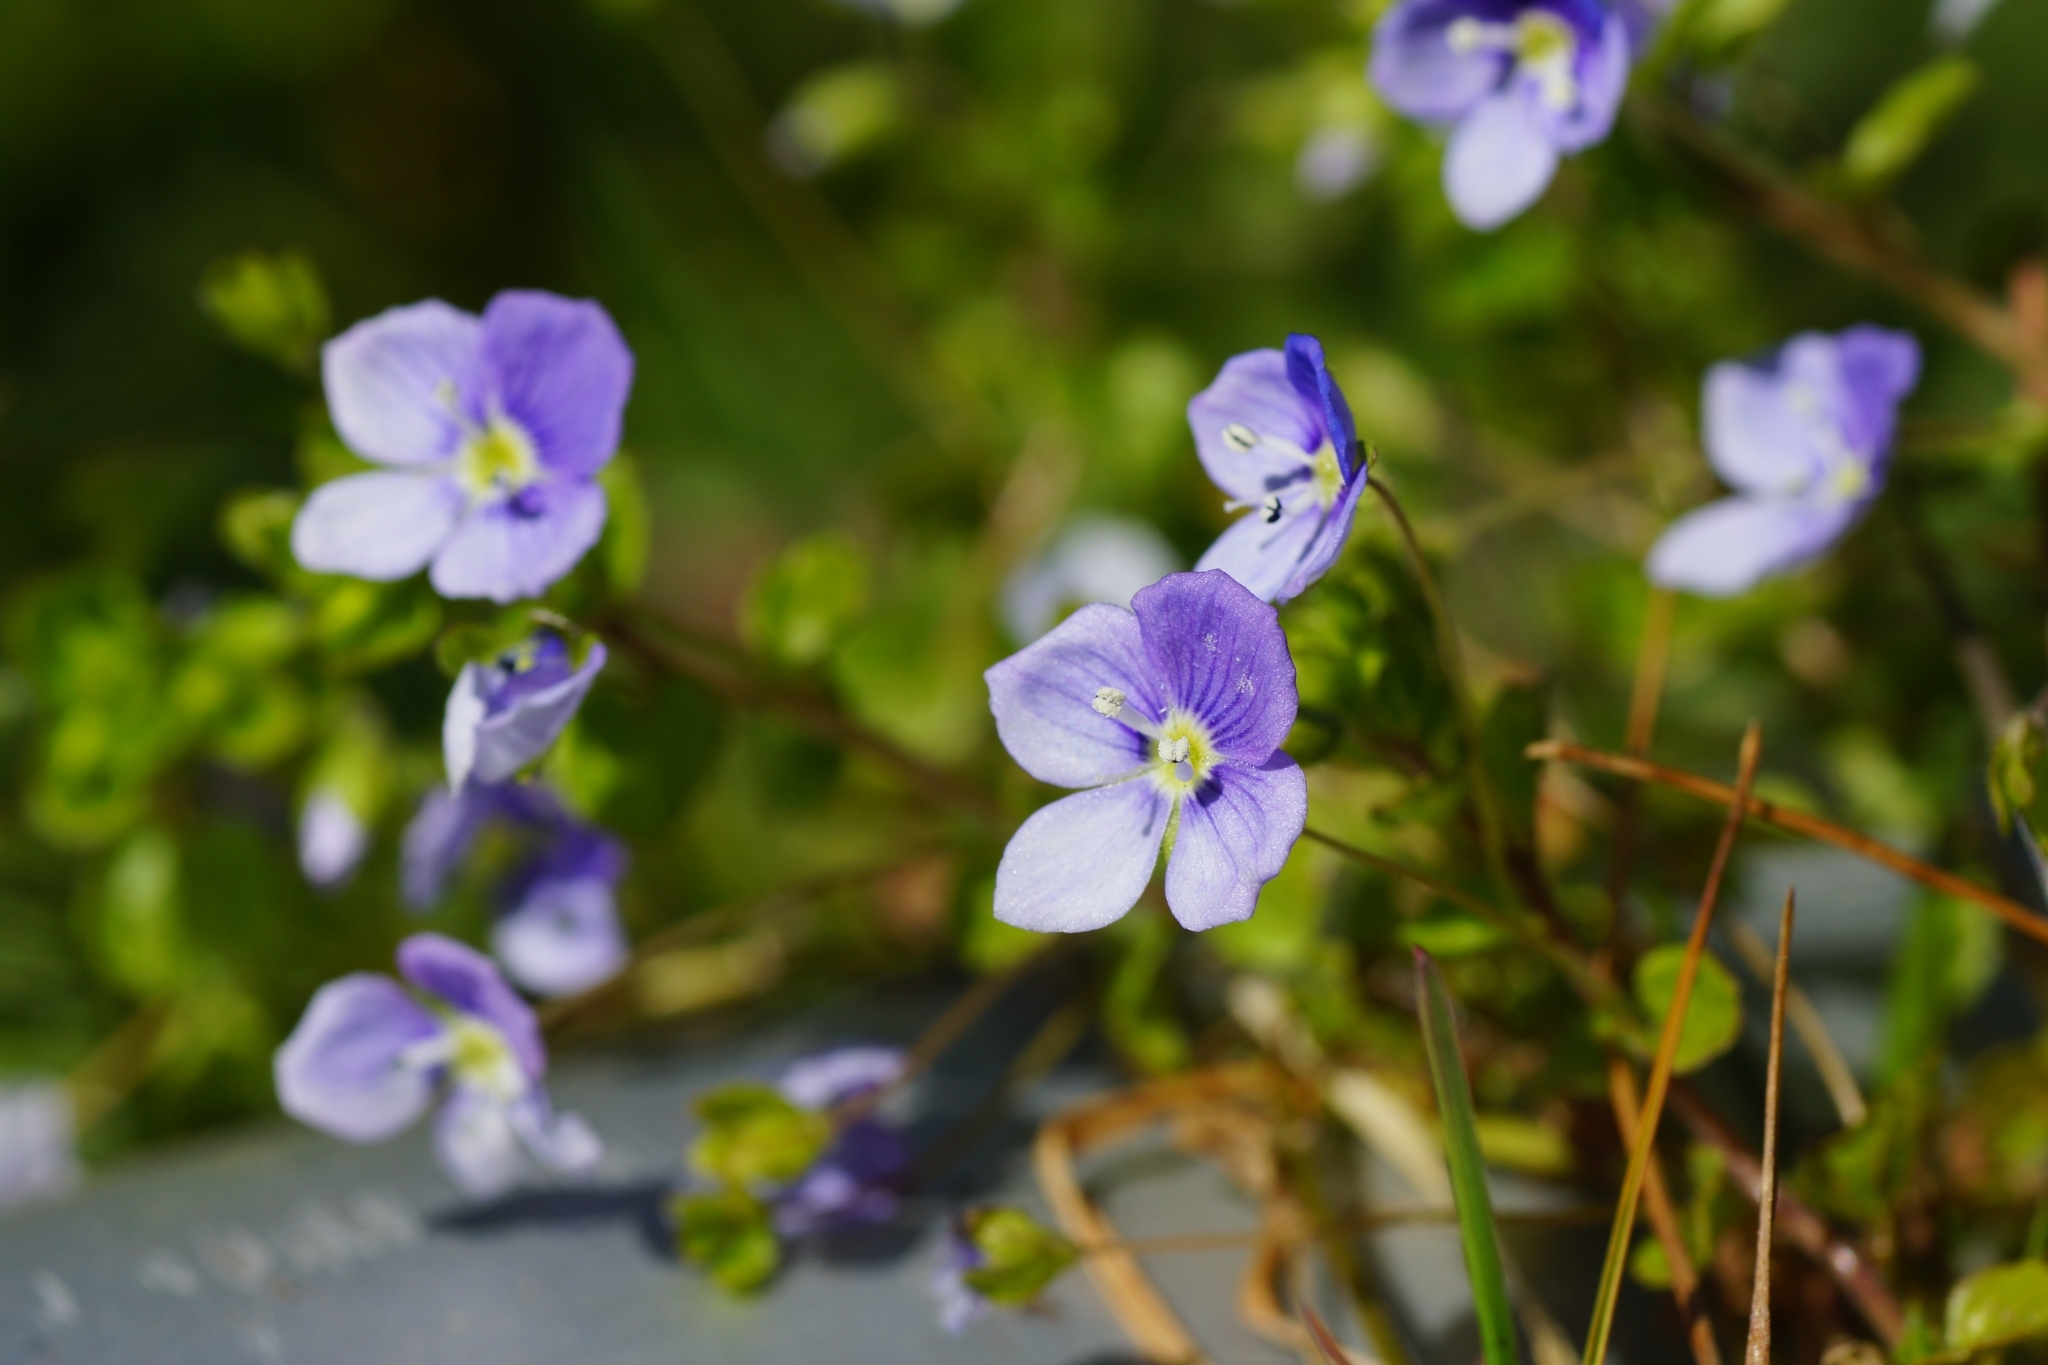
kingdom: Plantae
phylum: Tracheophyta
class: Magnoliopsida
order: Lamiales
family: Plantaginaceae
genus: Veronica
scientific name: Veronica filiformis
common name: Slender speedwell
